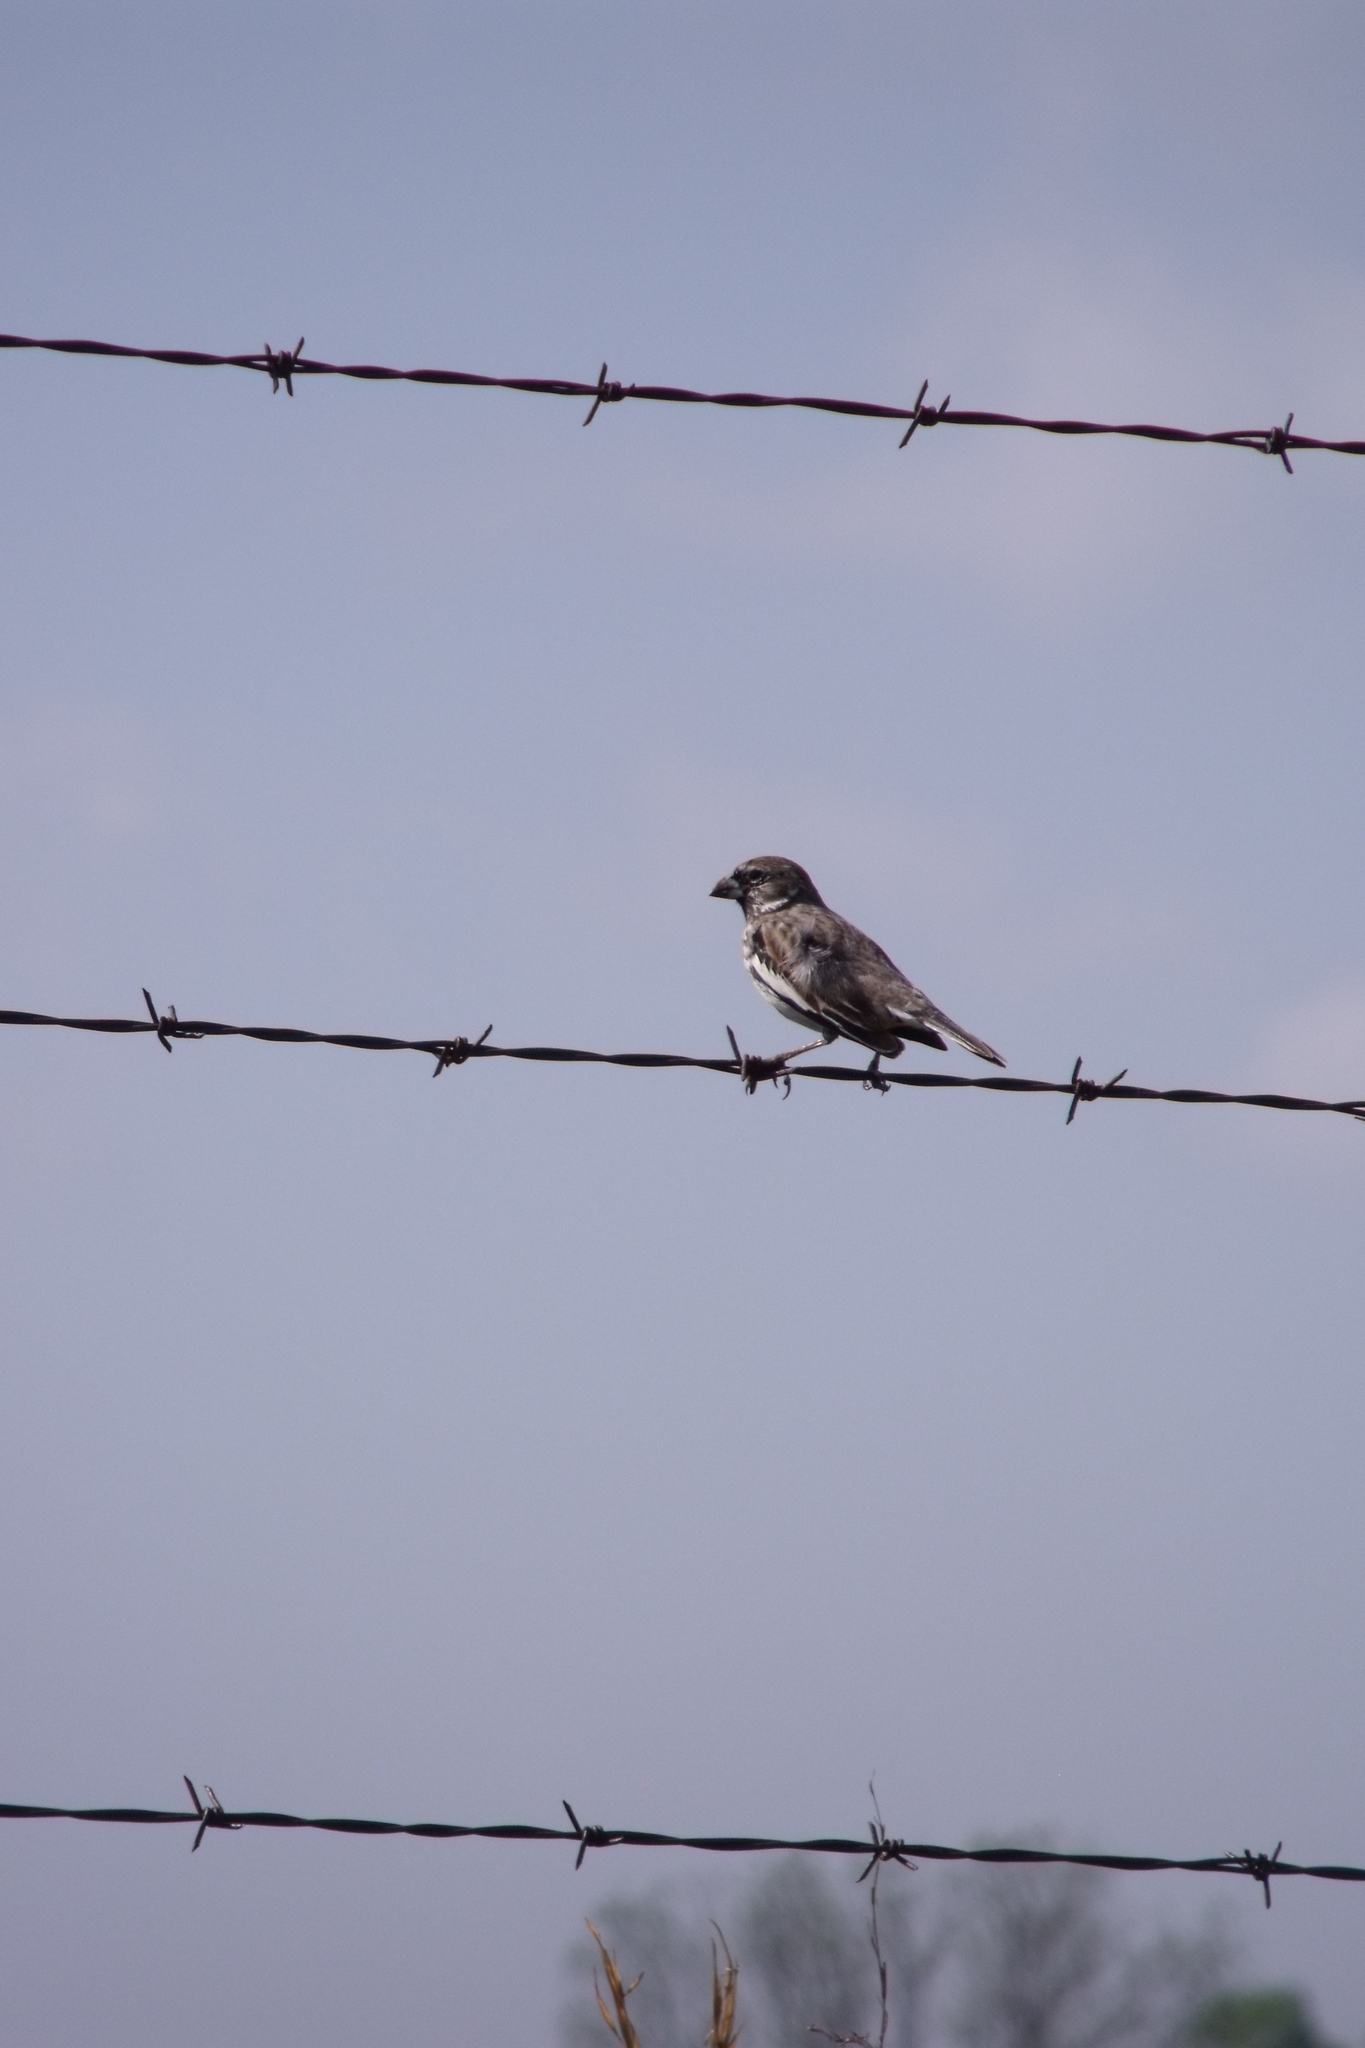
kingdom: Animalia
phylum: Chordata
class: Aves
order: Passeriformes
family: Passerellidae
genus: Calamospiza
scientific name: Calamospiza melanocorys
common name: Lark bunting
